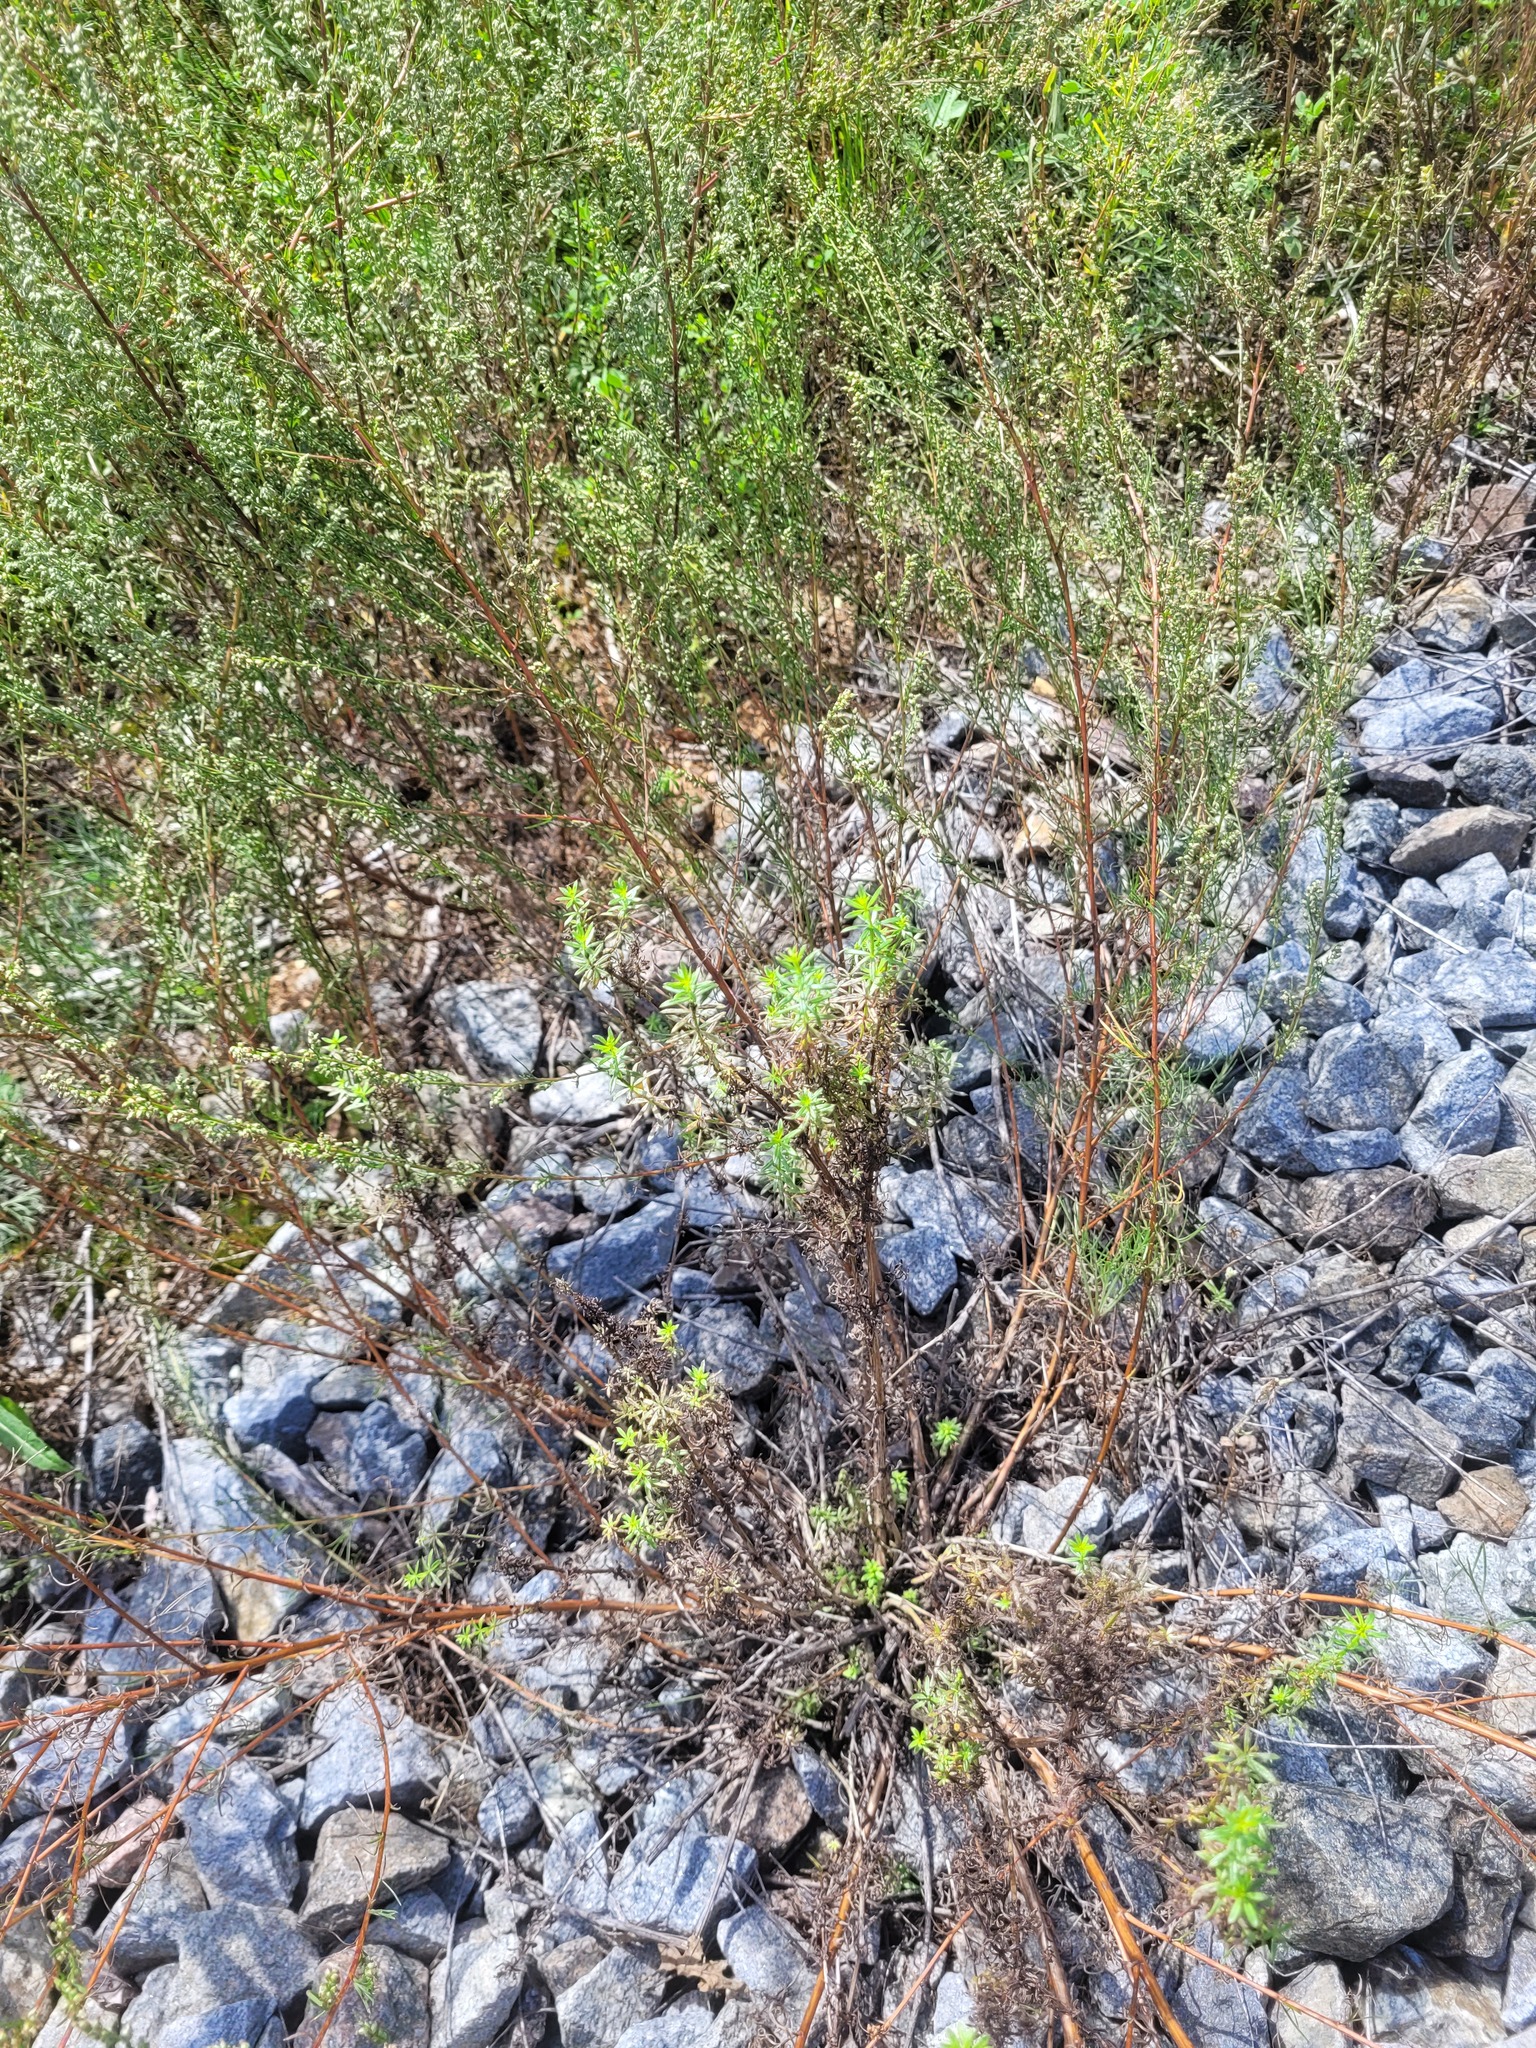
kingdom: Plantae
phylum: Tracheophyta
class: Magnoliopsida
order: Gentianales
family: Rubiaceae
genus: Galium
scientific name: Galium mollugo
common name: Hedge bedstraw
